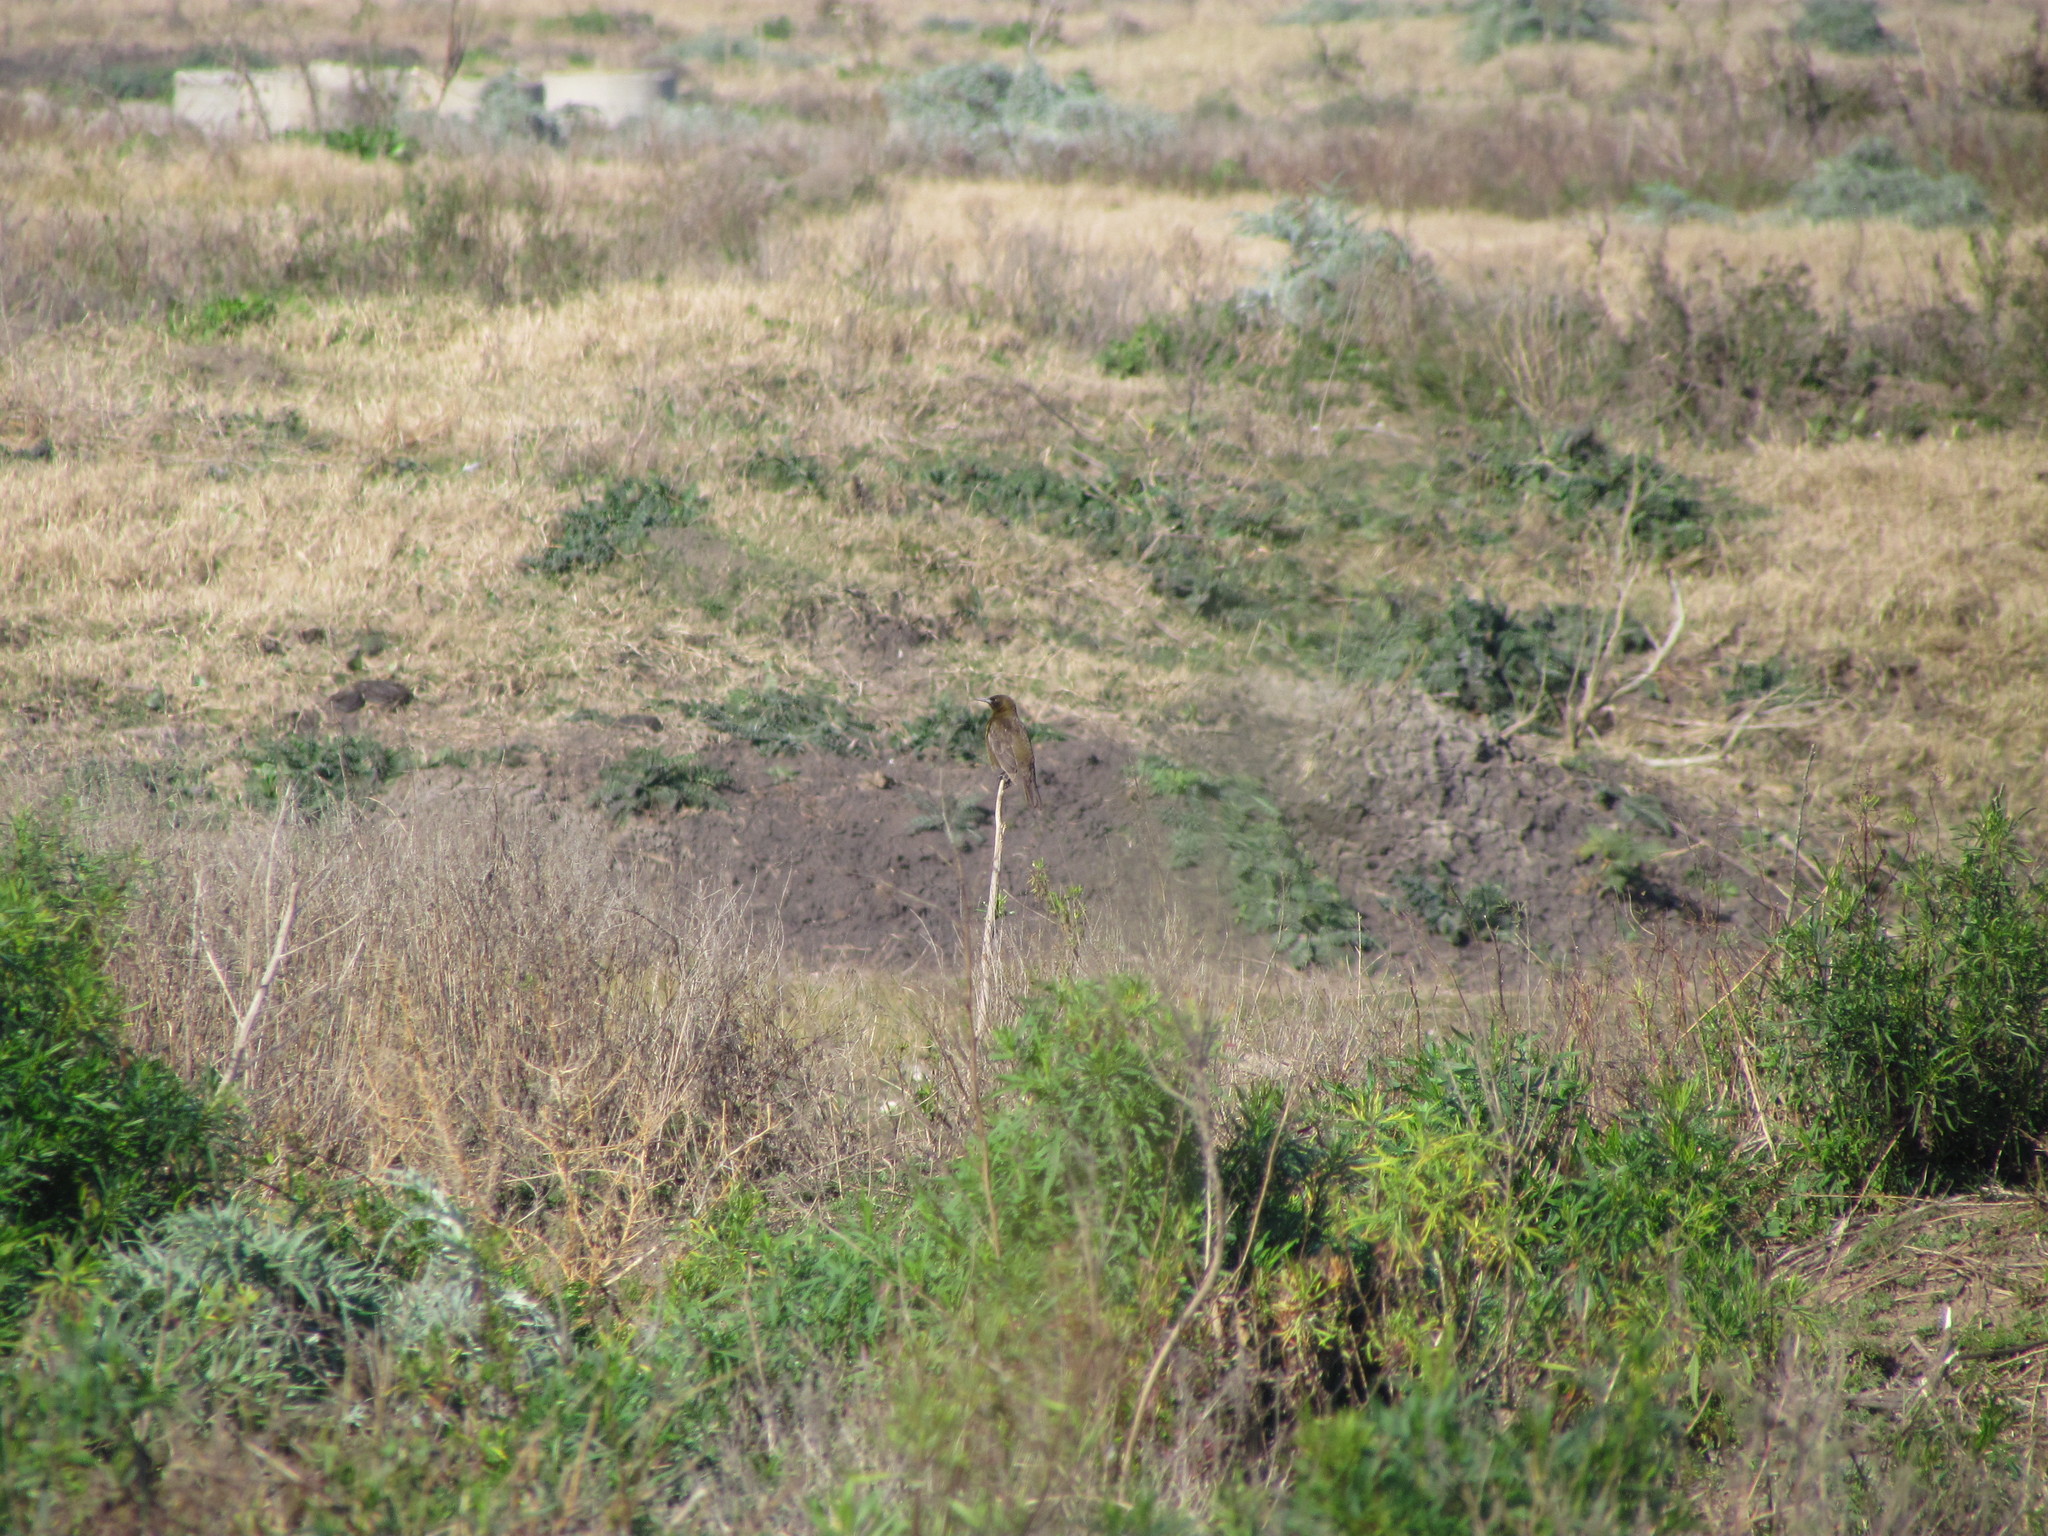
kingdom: Animalia
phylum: Chordata
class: Aves
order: Passeriformes
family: Icteridae
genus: Pseudoleistes
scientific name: Pseudoleistes virescens
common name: Brown-and-yellow marshbird
